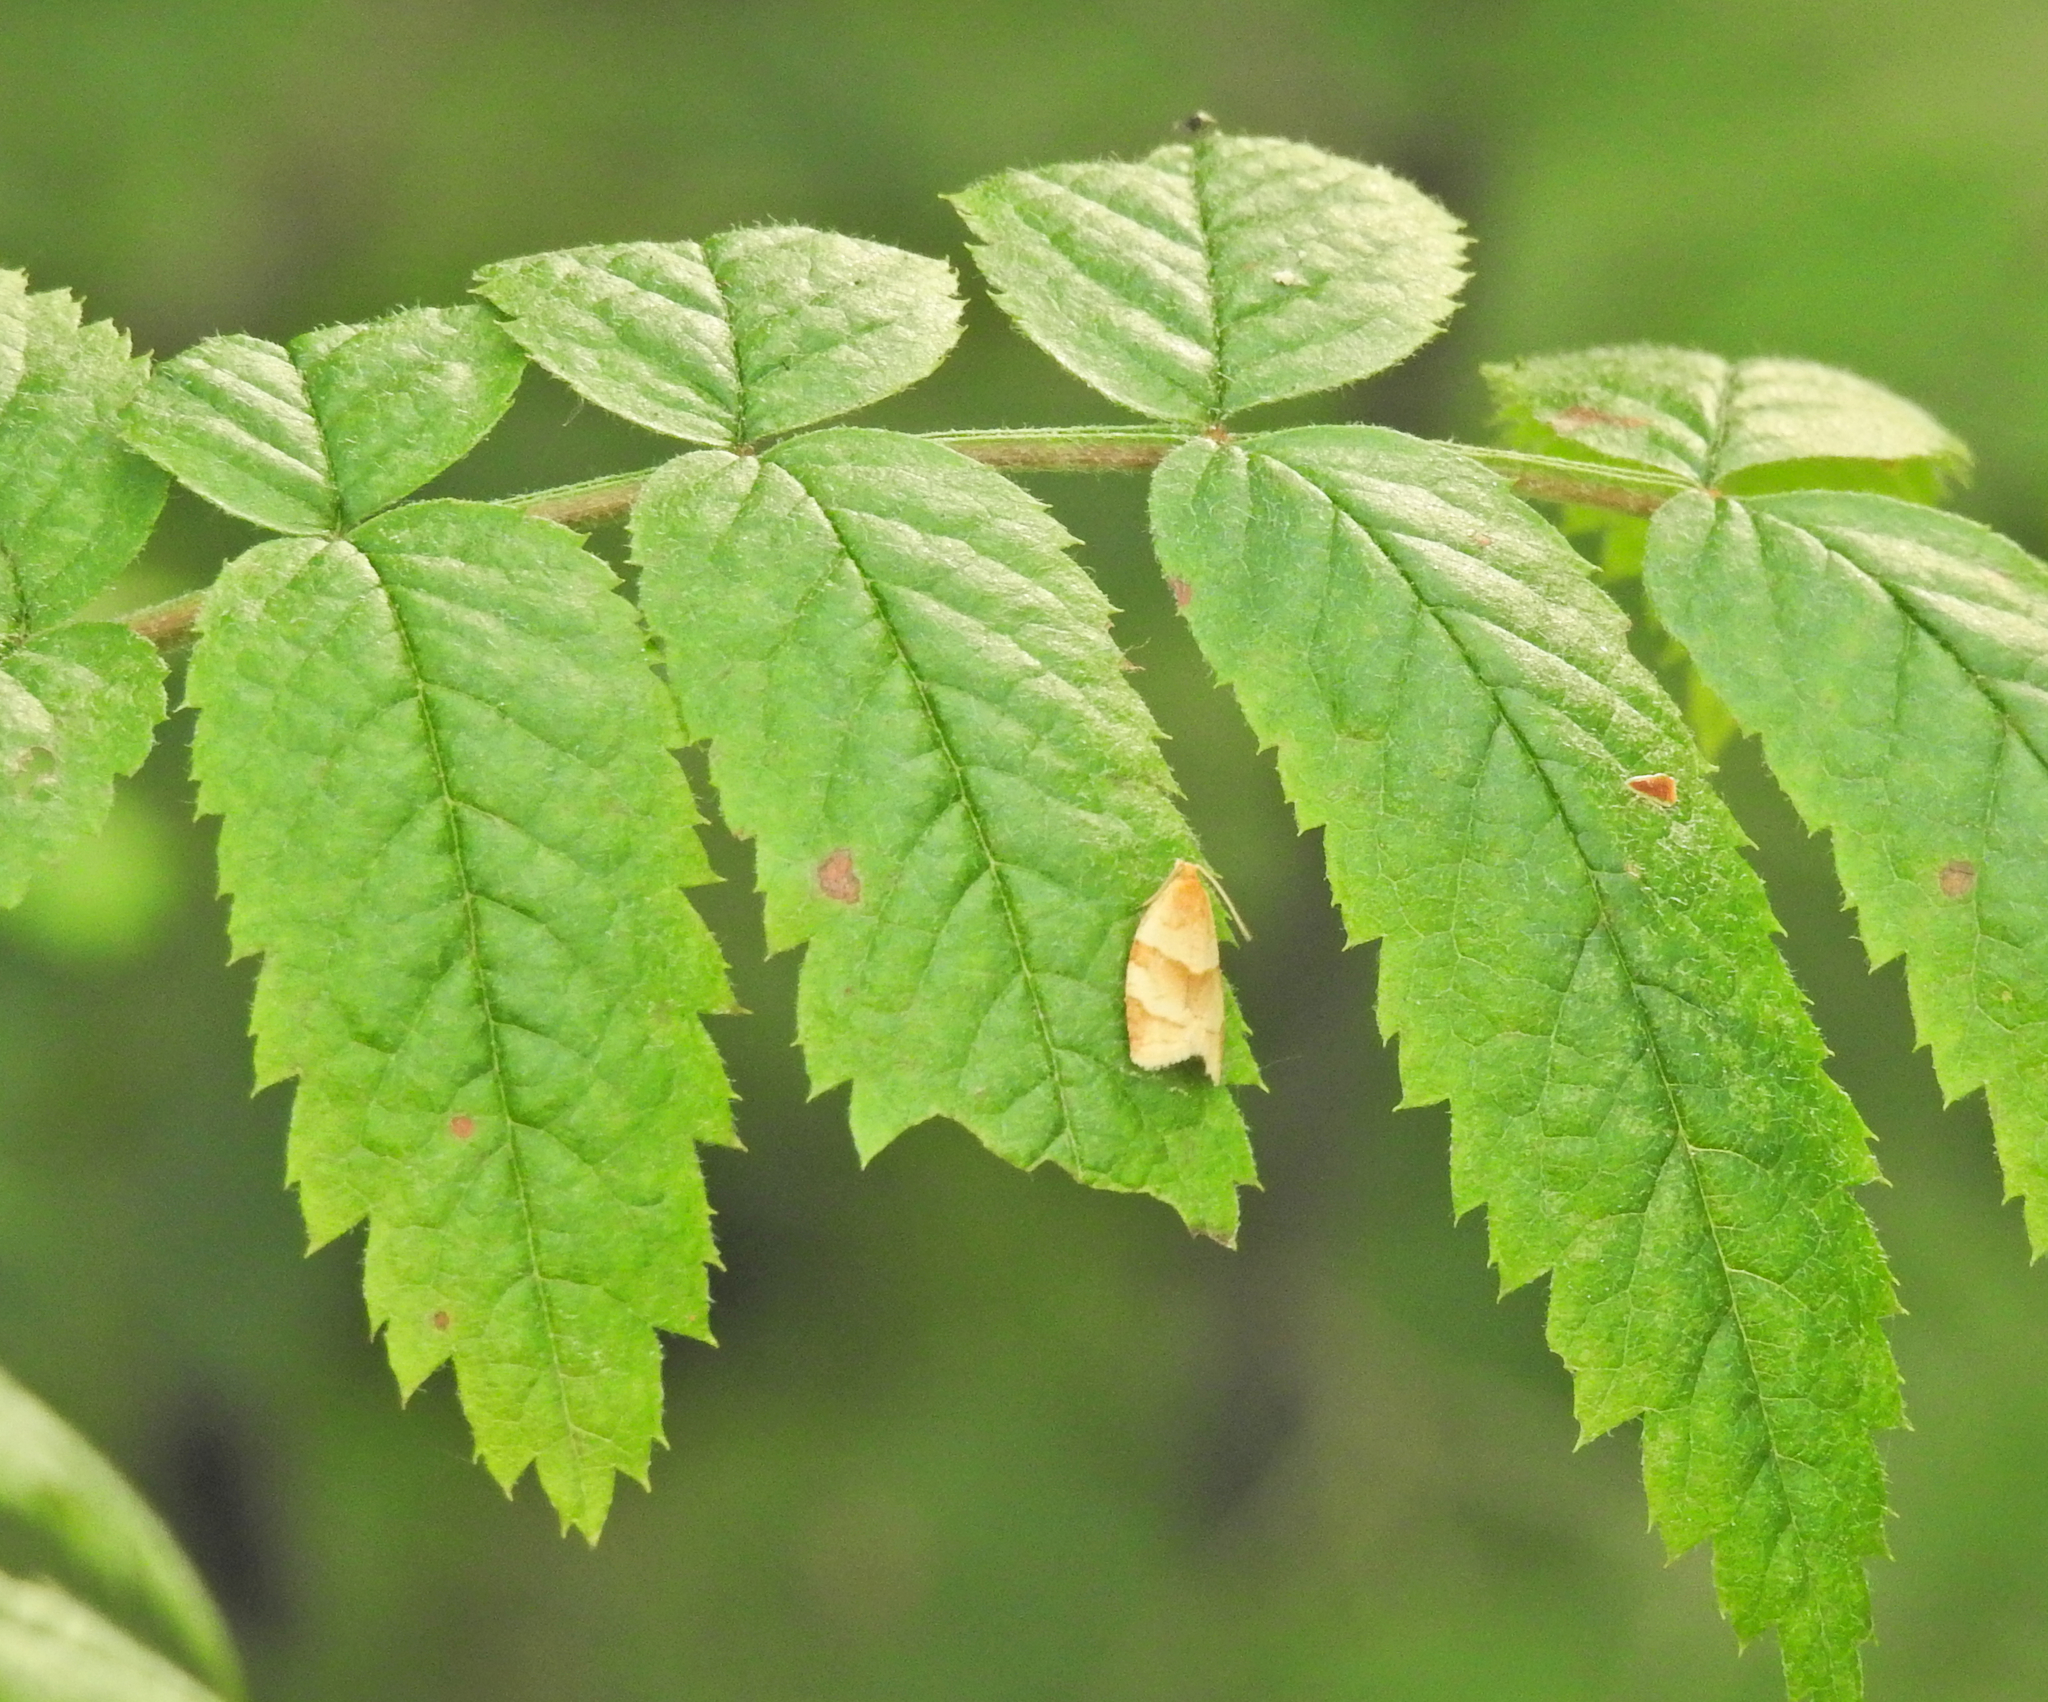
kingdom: Animalia
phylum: Arthropoda
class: Insecta
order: Lepidoptera
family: Tortricidae
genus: Clepsis
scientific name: Clepsis rurinana
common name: Pale twist
